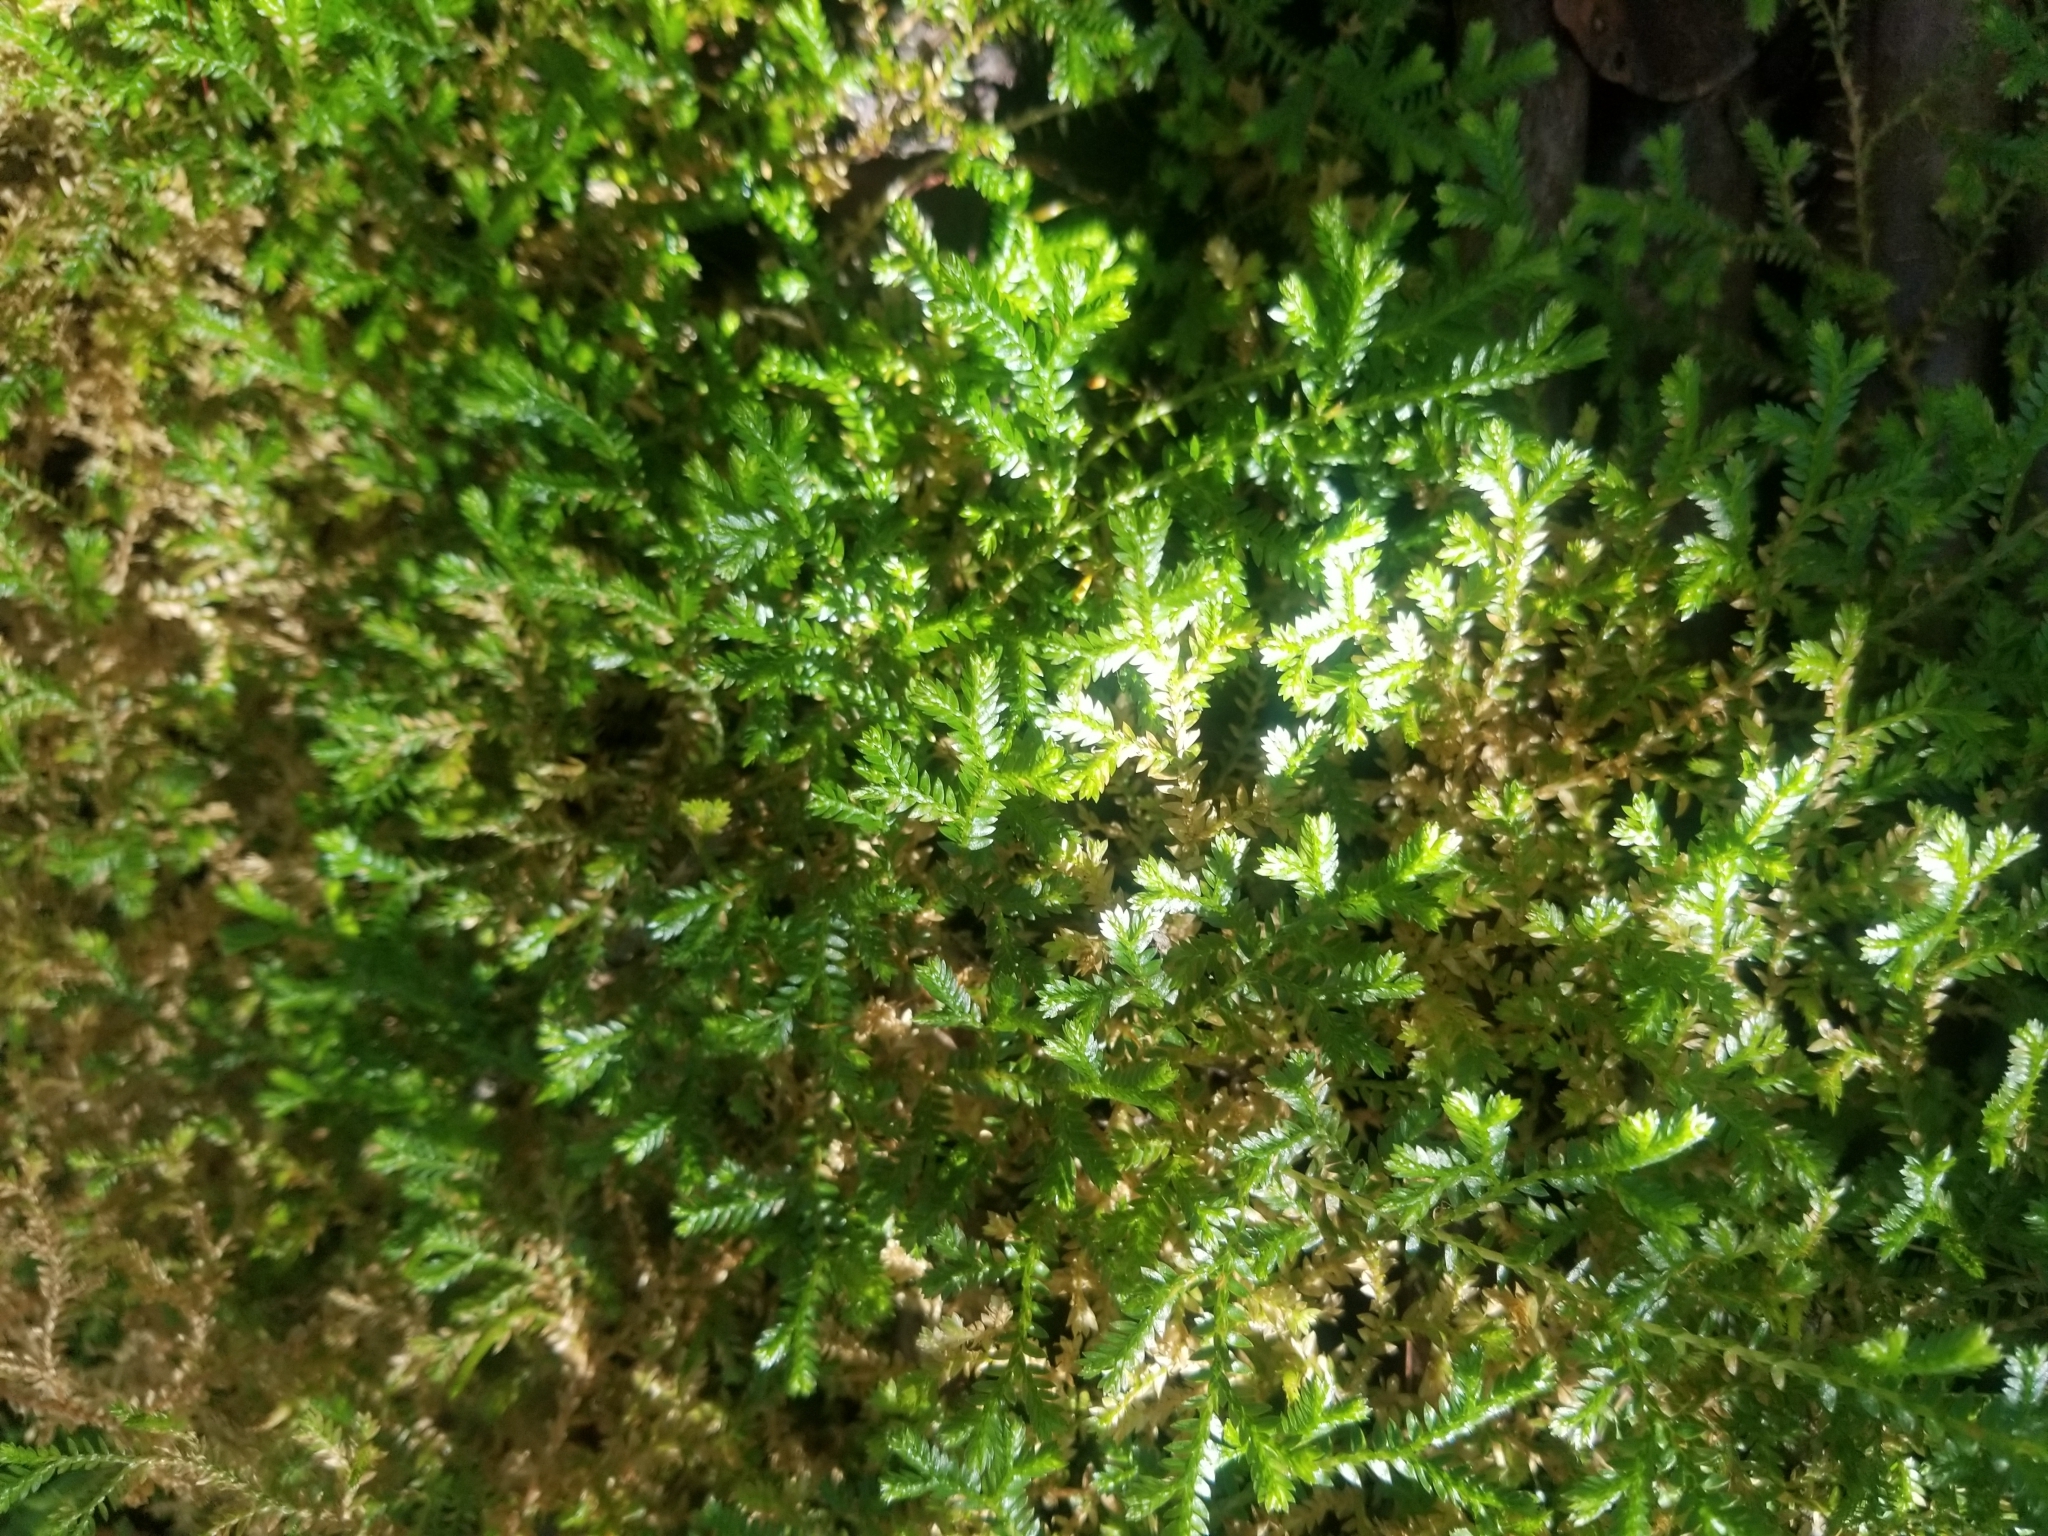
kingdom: Plantae
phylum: Tracheophyta
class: Lycopodiopsida
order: Selaginellales
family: Selaginellaceae
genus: Selaginella
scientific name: Selaginella kraussiana
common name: Krauss' spikemoss
